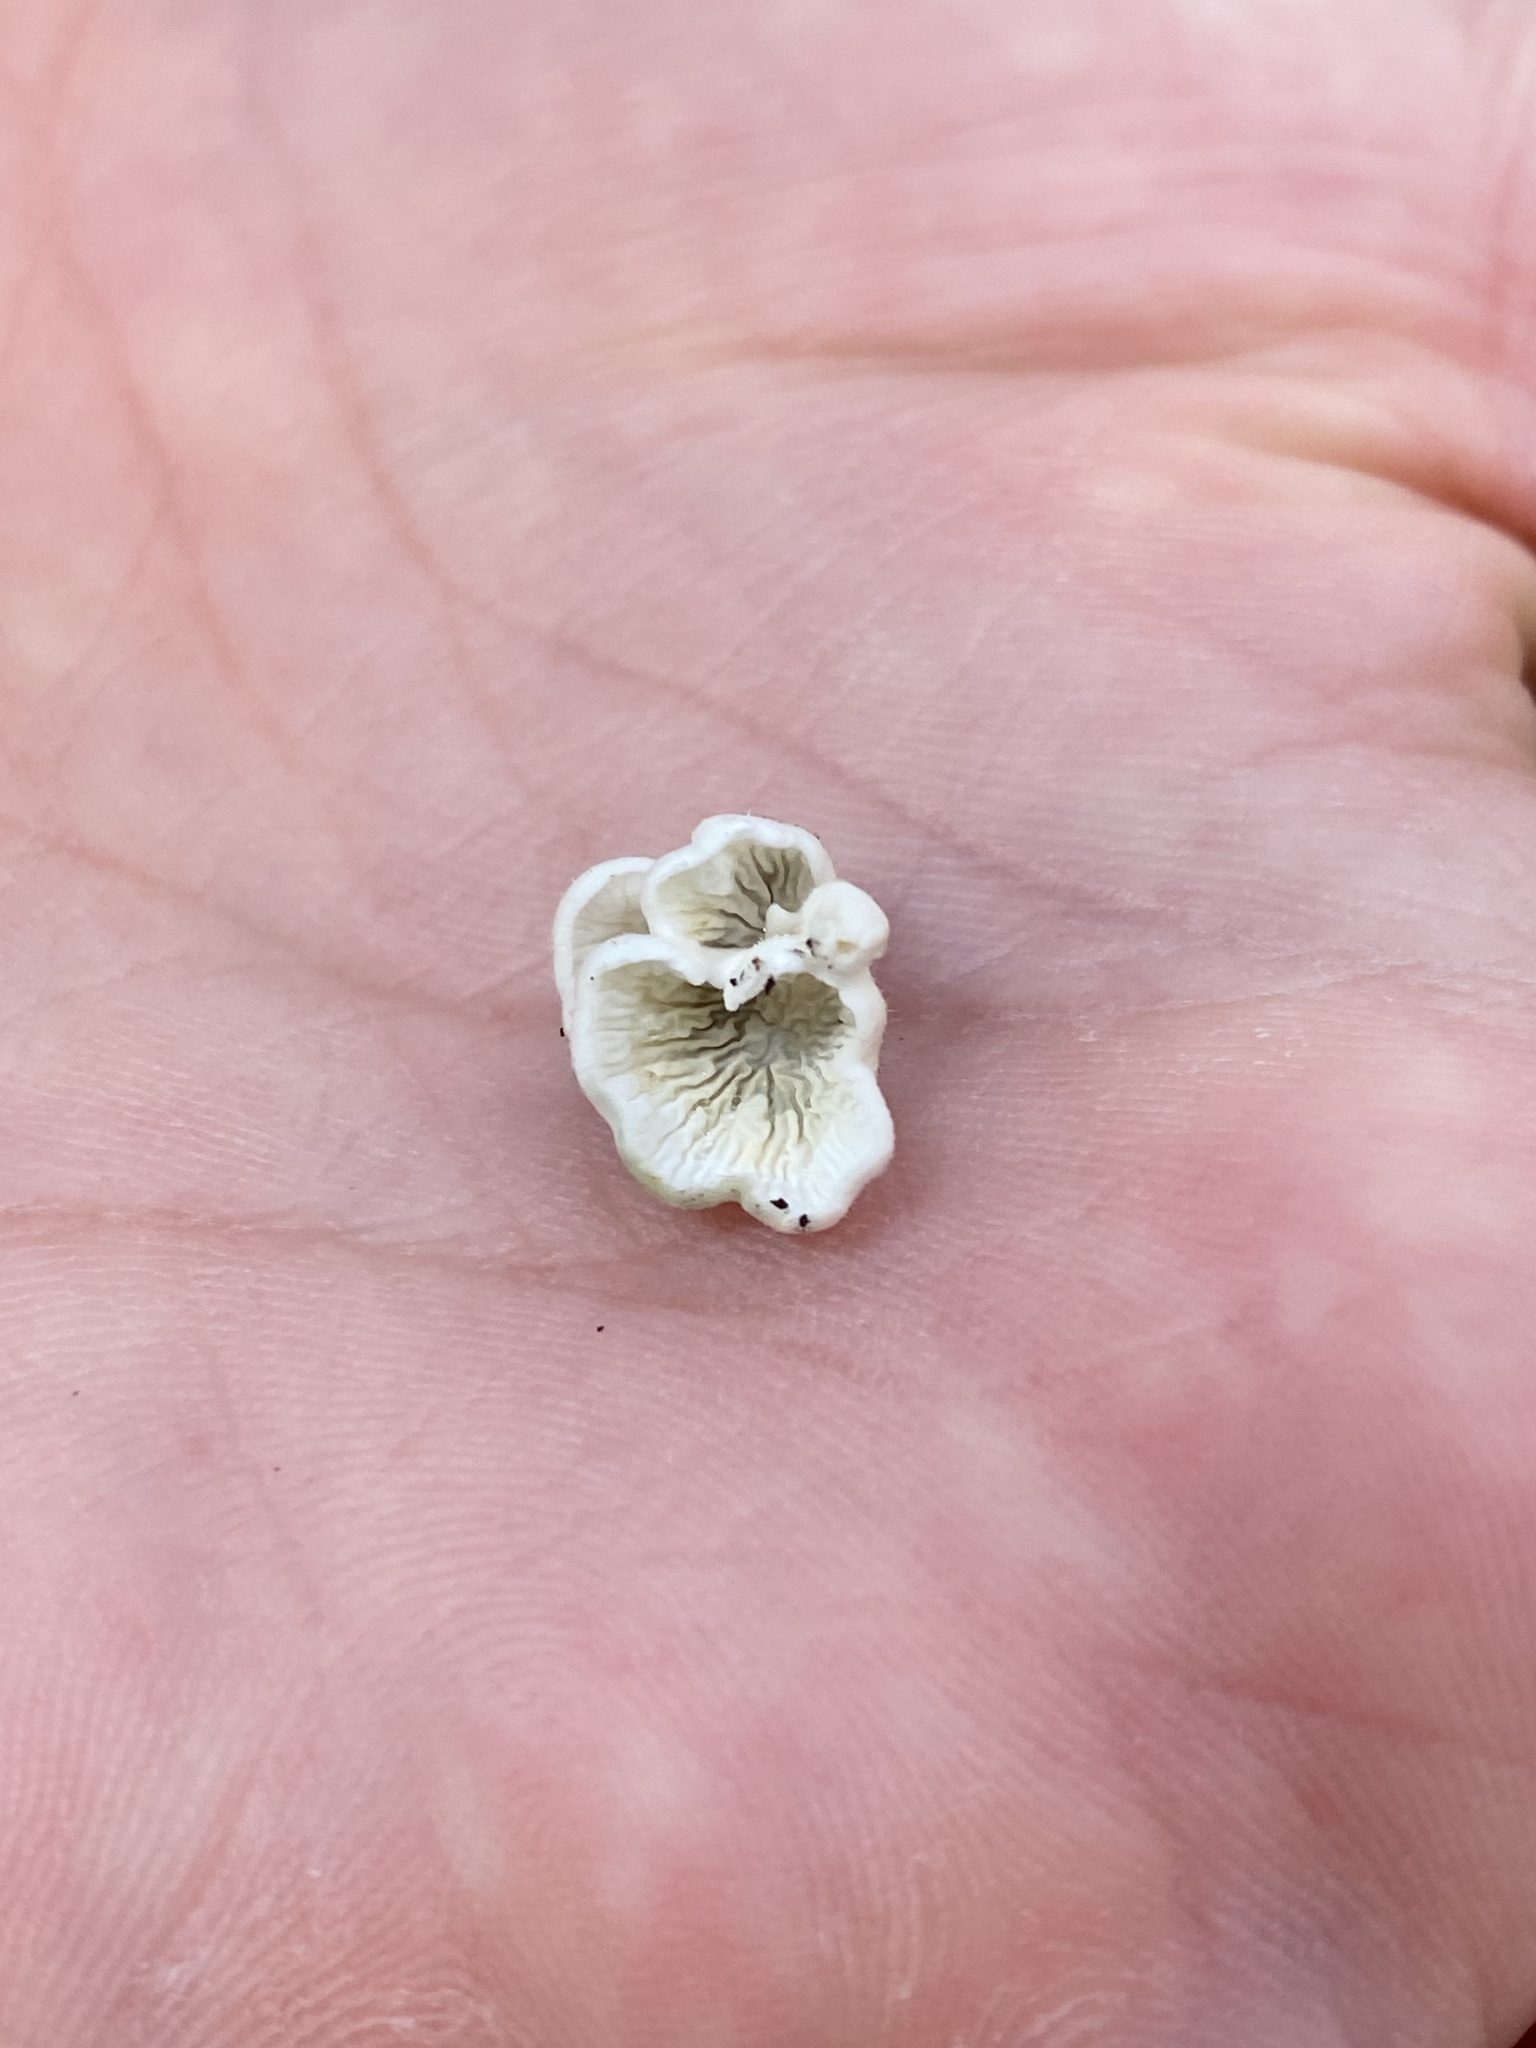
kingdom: Fungi
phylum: Basidiomycota
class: Agaricomycetes
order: Amylocorticiales
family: Amylocorticiaceae
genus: Plicaturopsis
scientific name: Plicaturopsis crispa
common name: Crimped gill
